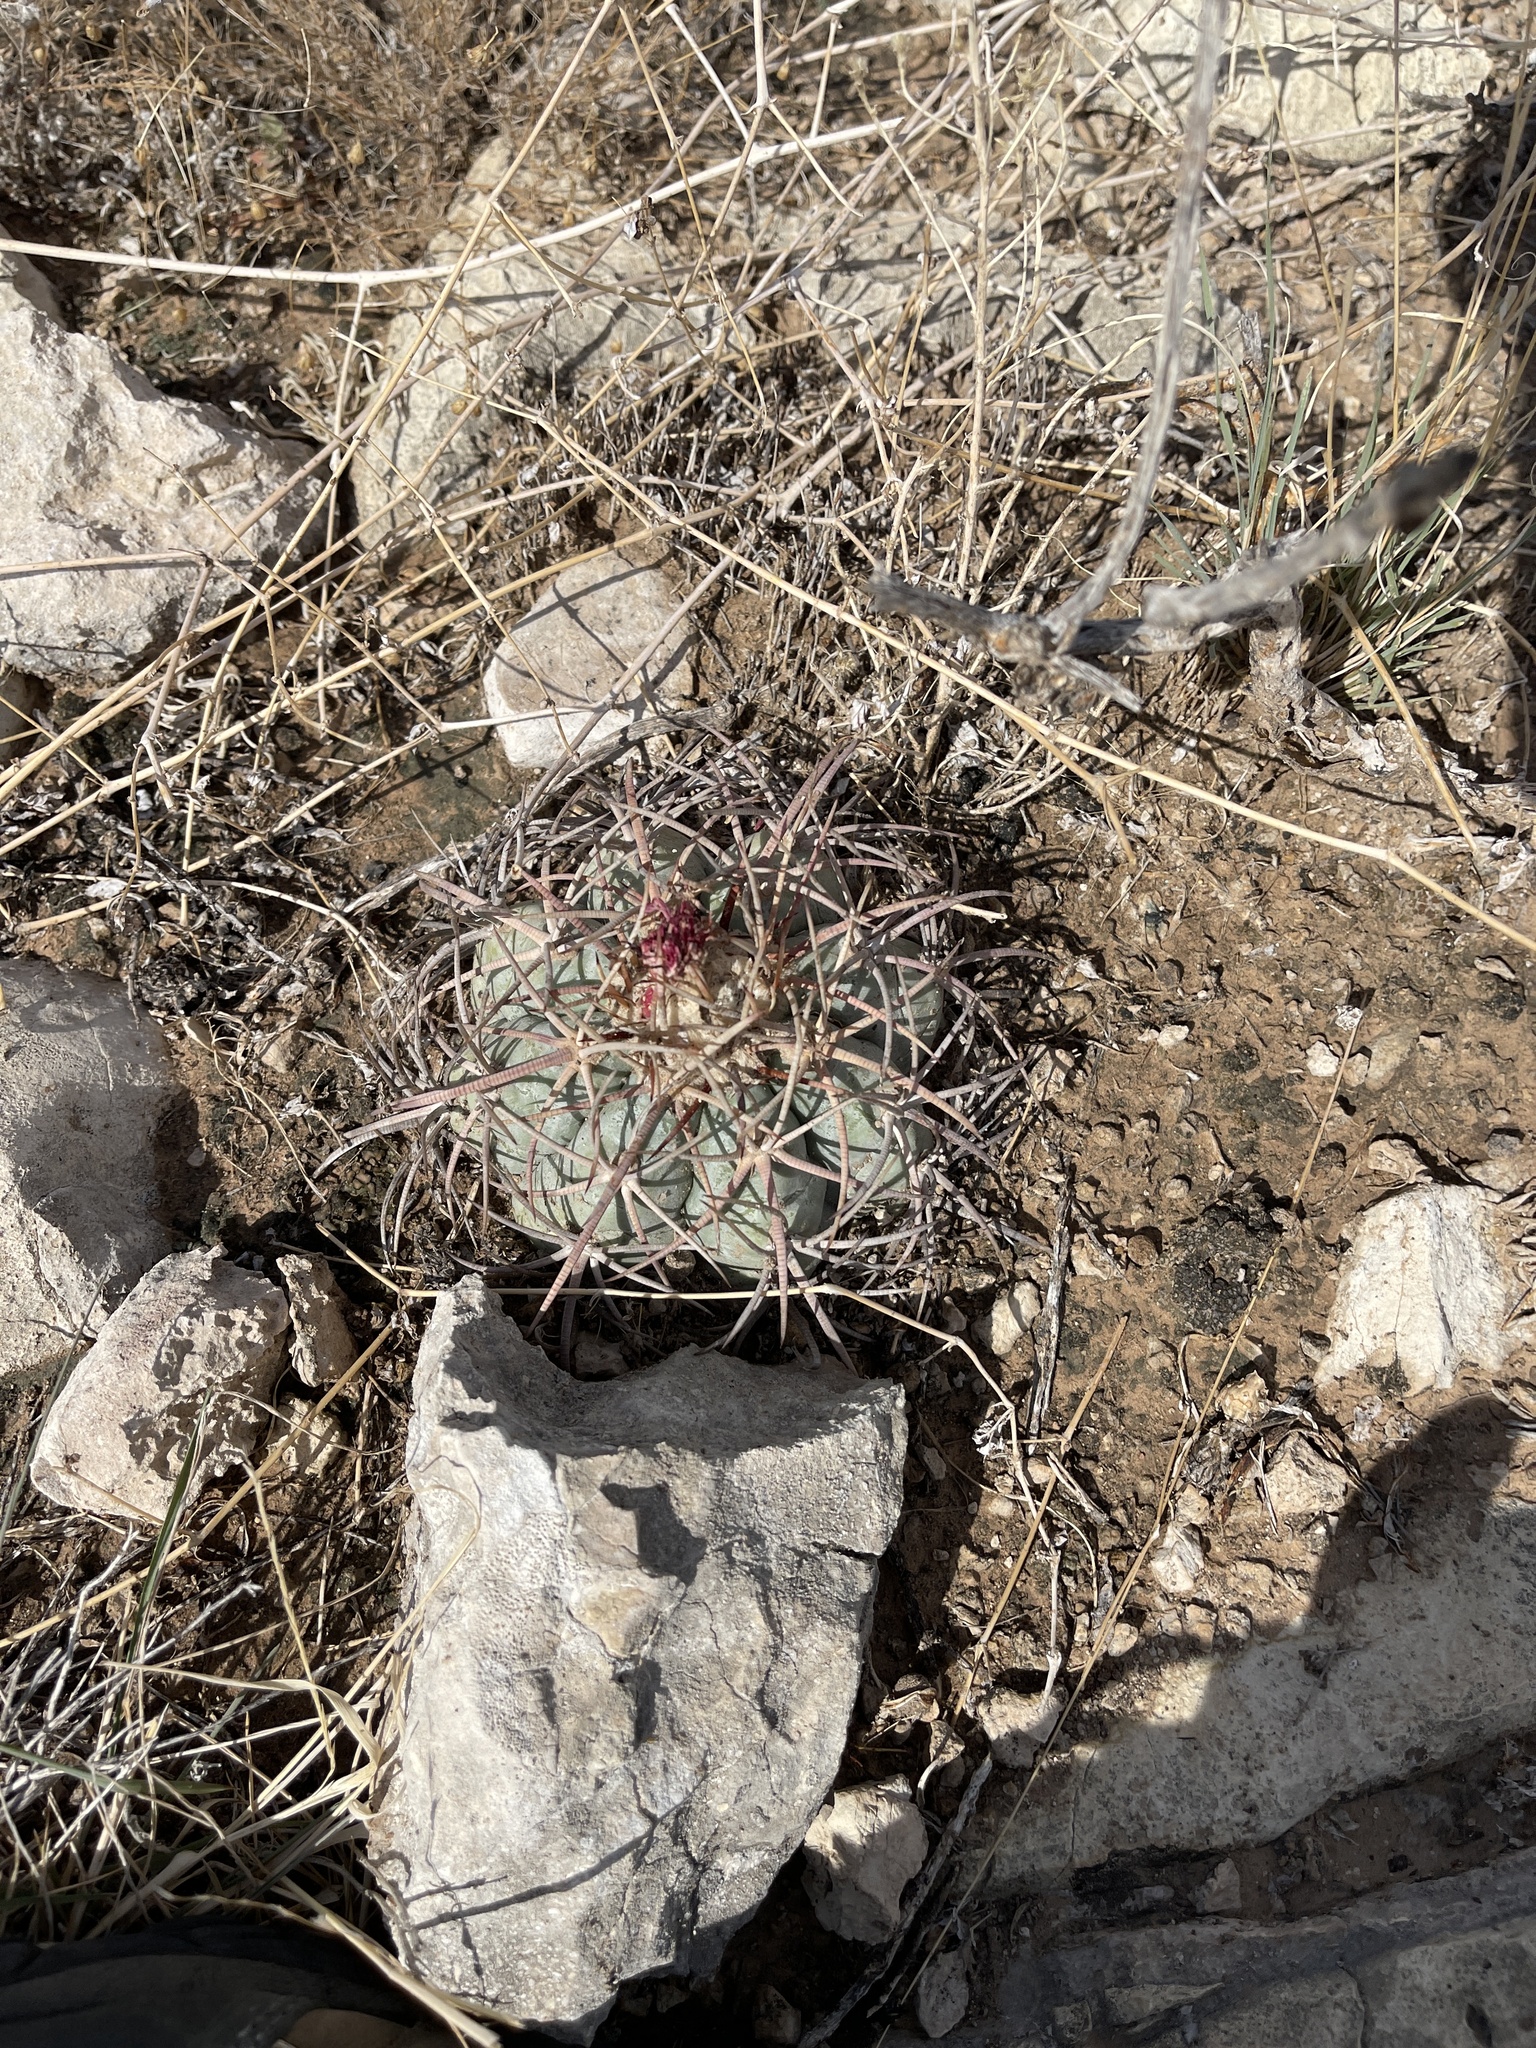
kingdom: Plantae
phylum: Tracheophyta
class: Magnoliopsida
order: Caryophyllales
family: Cactaceae
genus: Echinocactus
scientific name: Echinocactus horizonthalonius
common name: Devilshead
